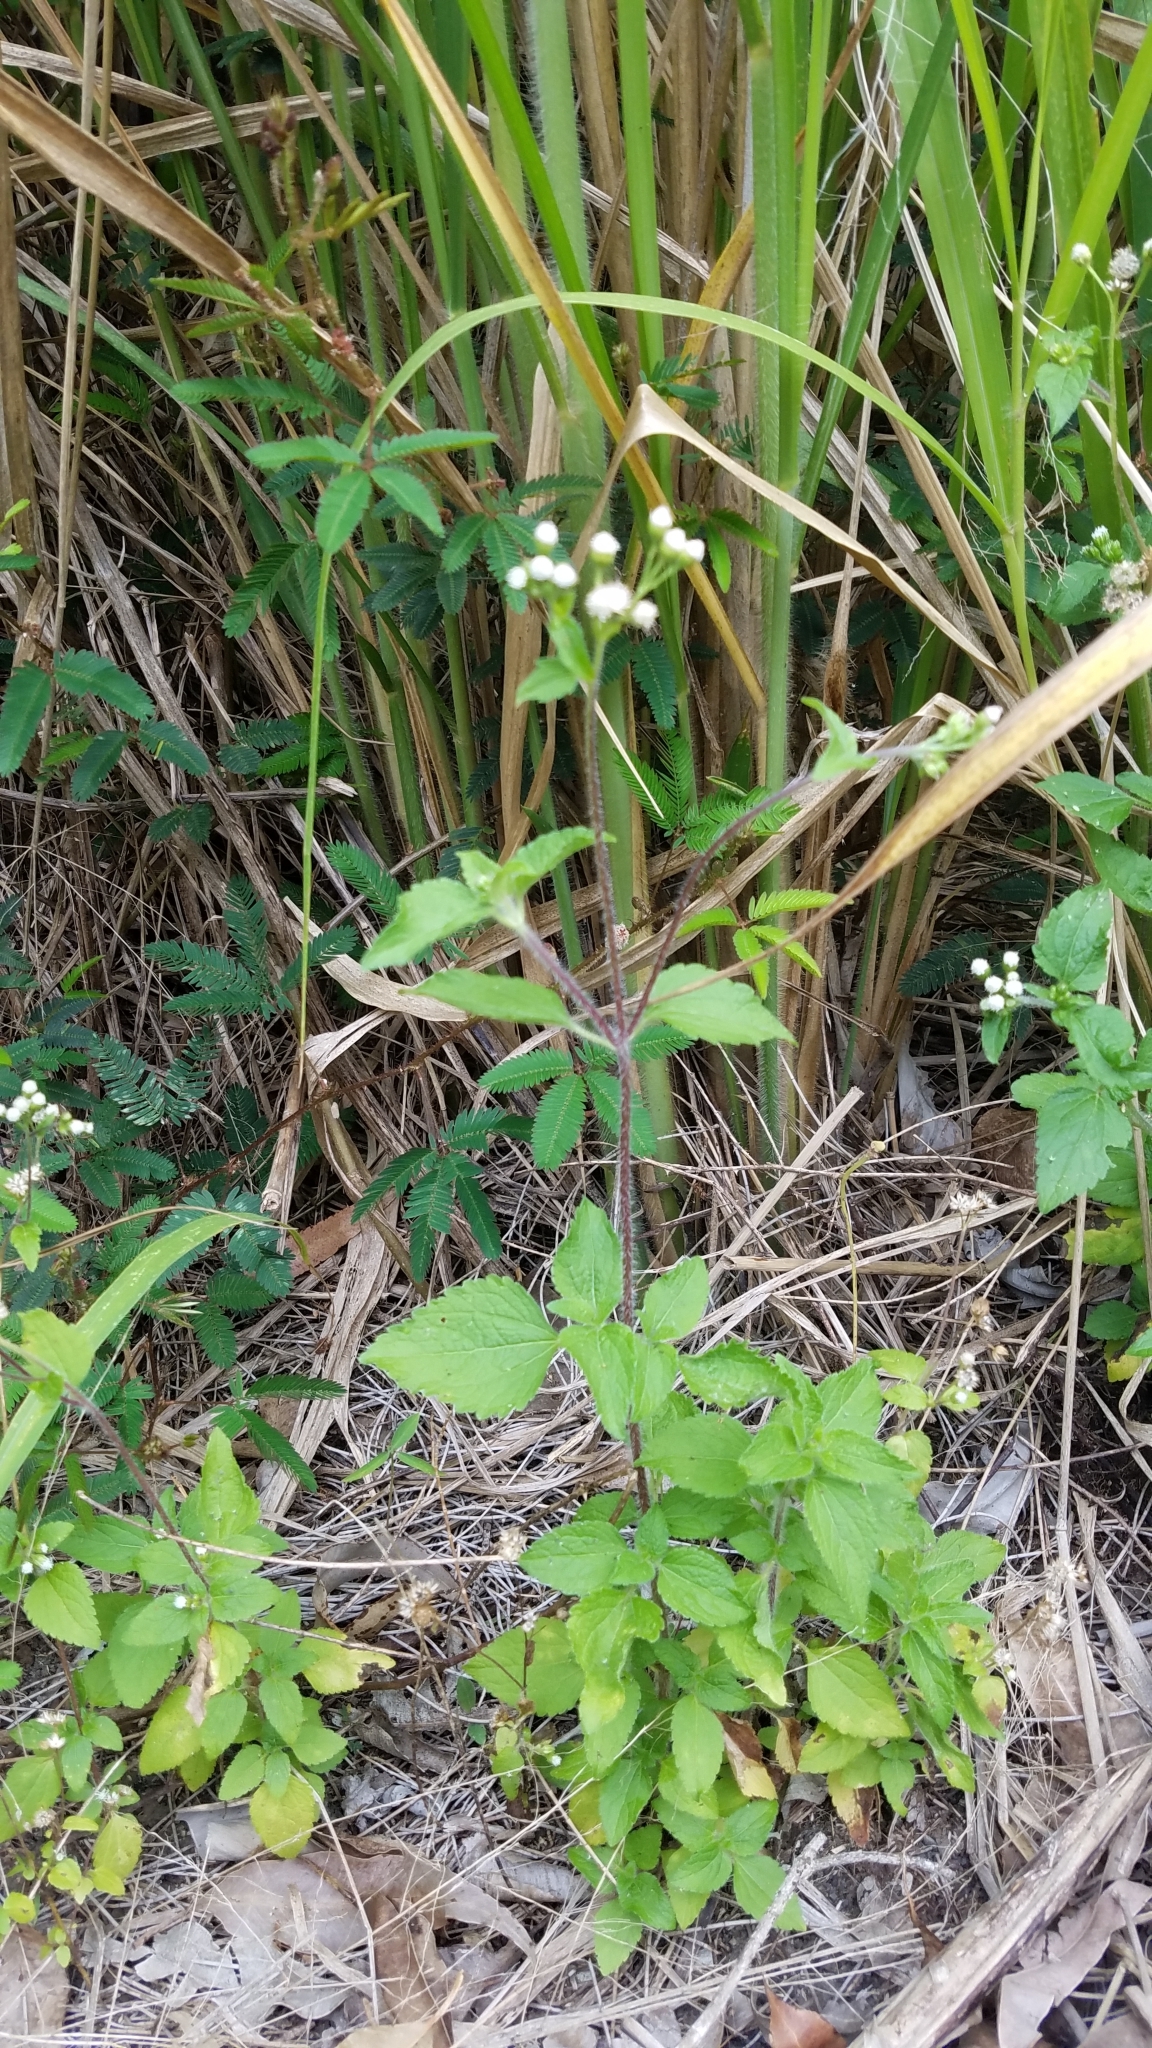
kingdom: Plantae
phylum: Tracheophyta
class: Magnoliopsida
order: Asterales
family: Asteraceae
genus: Ageratum
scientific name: Ageratum conyzoides
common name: Tropical whiteweed
